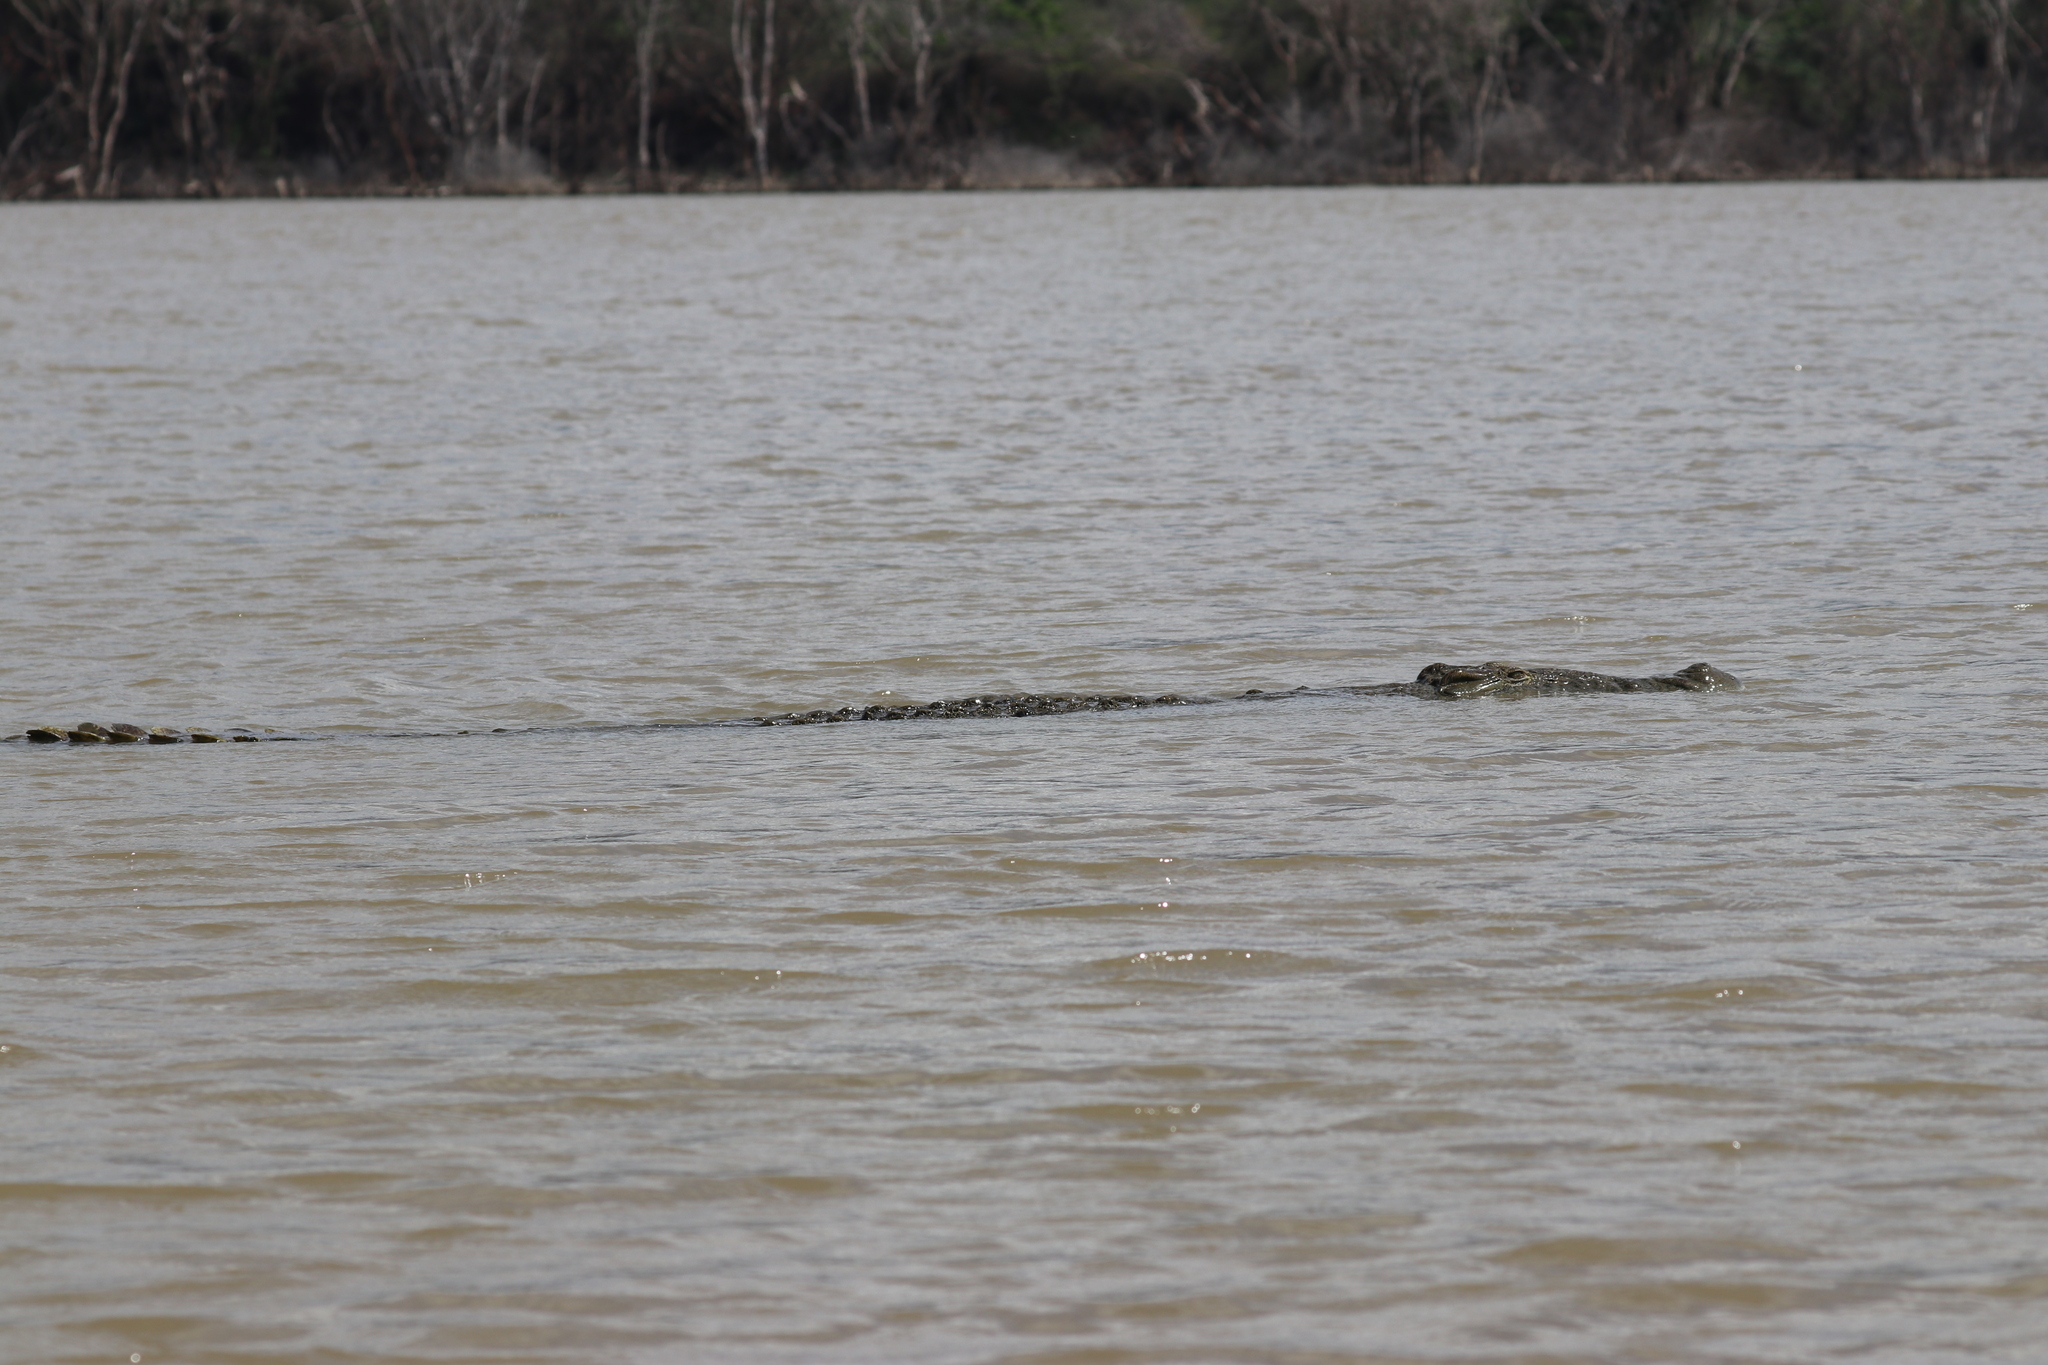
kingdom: Animalia
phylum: Chordata
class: Crocodylia
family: Crocodylidae
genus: Crocodylus
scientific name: Crocodylus niloticus
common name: Nile crocodile
